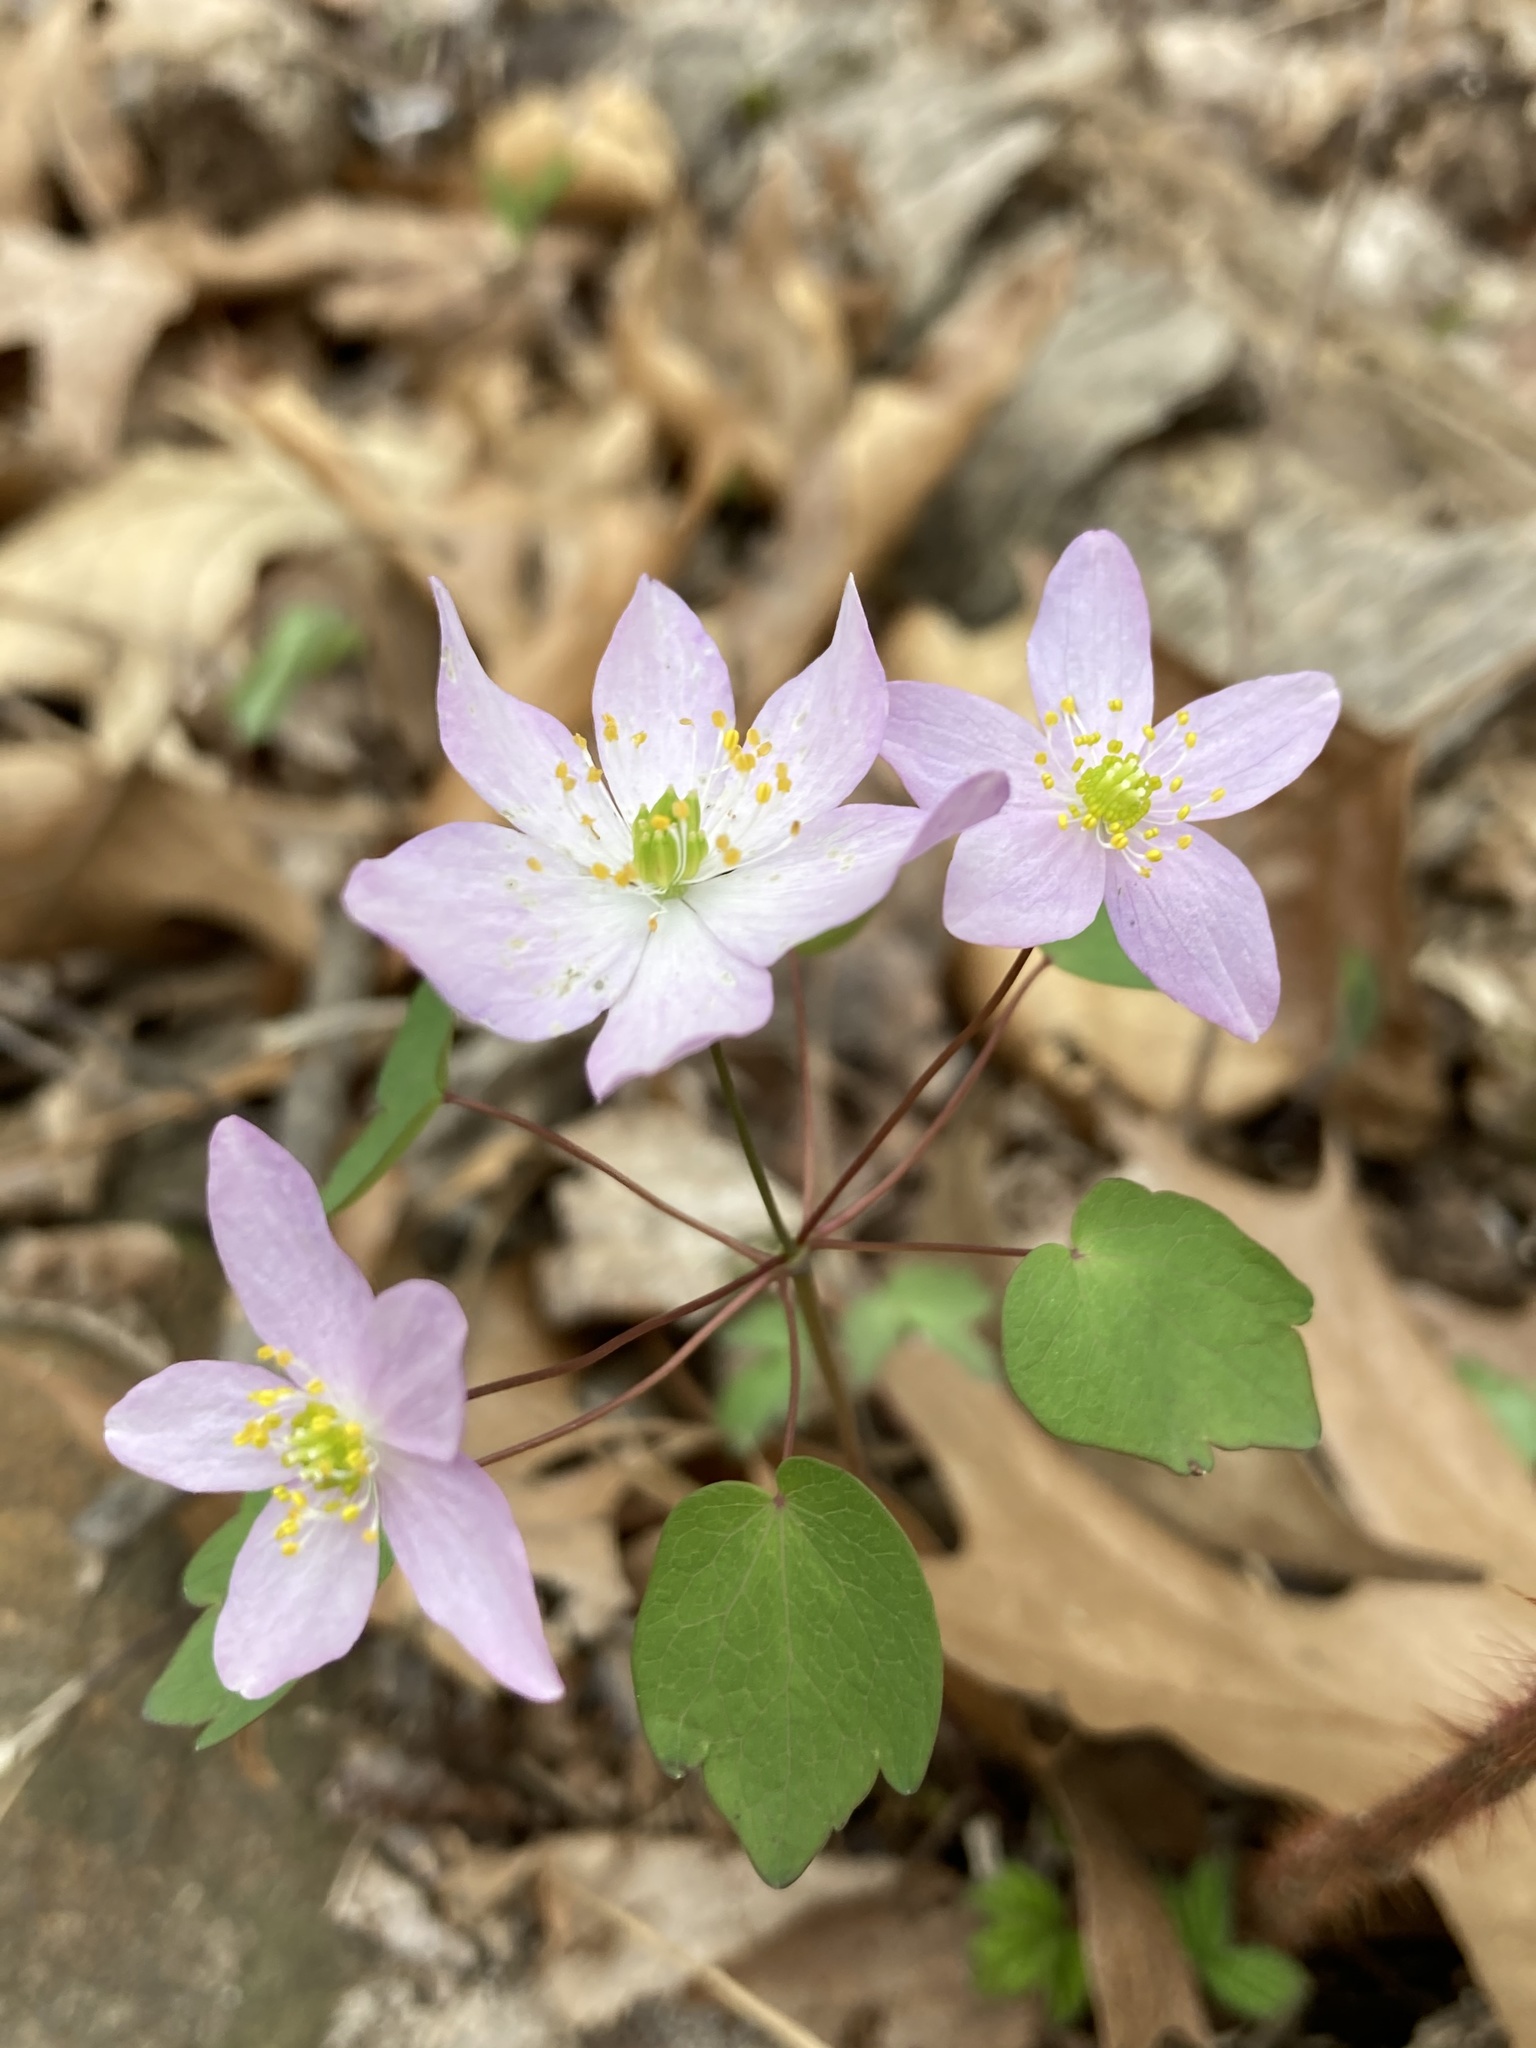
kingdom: Plantae
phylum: Tracheophyta
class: Magnoliopsida
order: Ranunculales
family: Ranunculaceae
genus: Thalictrum
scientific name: Thalictrum thalictroides
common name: Rue-anemone
